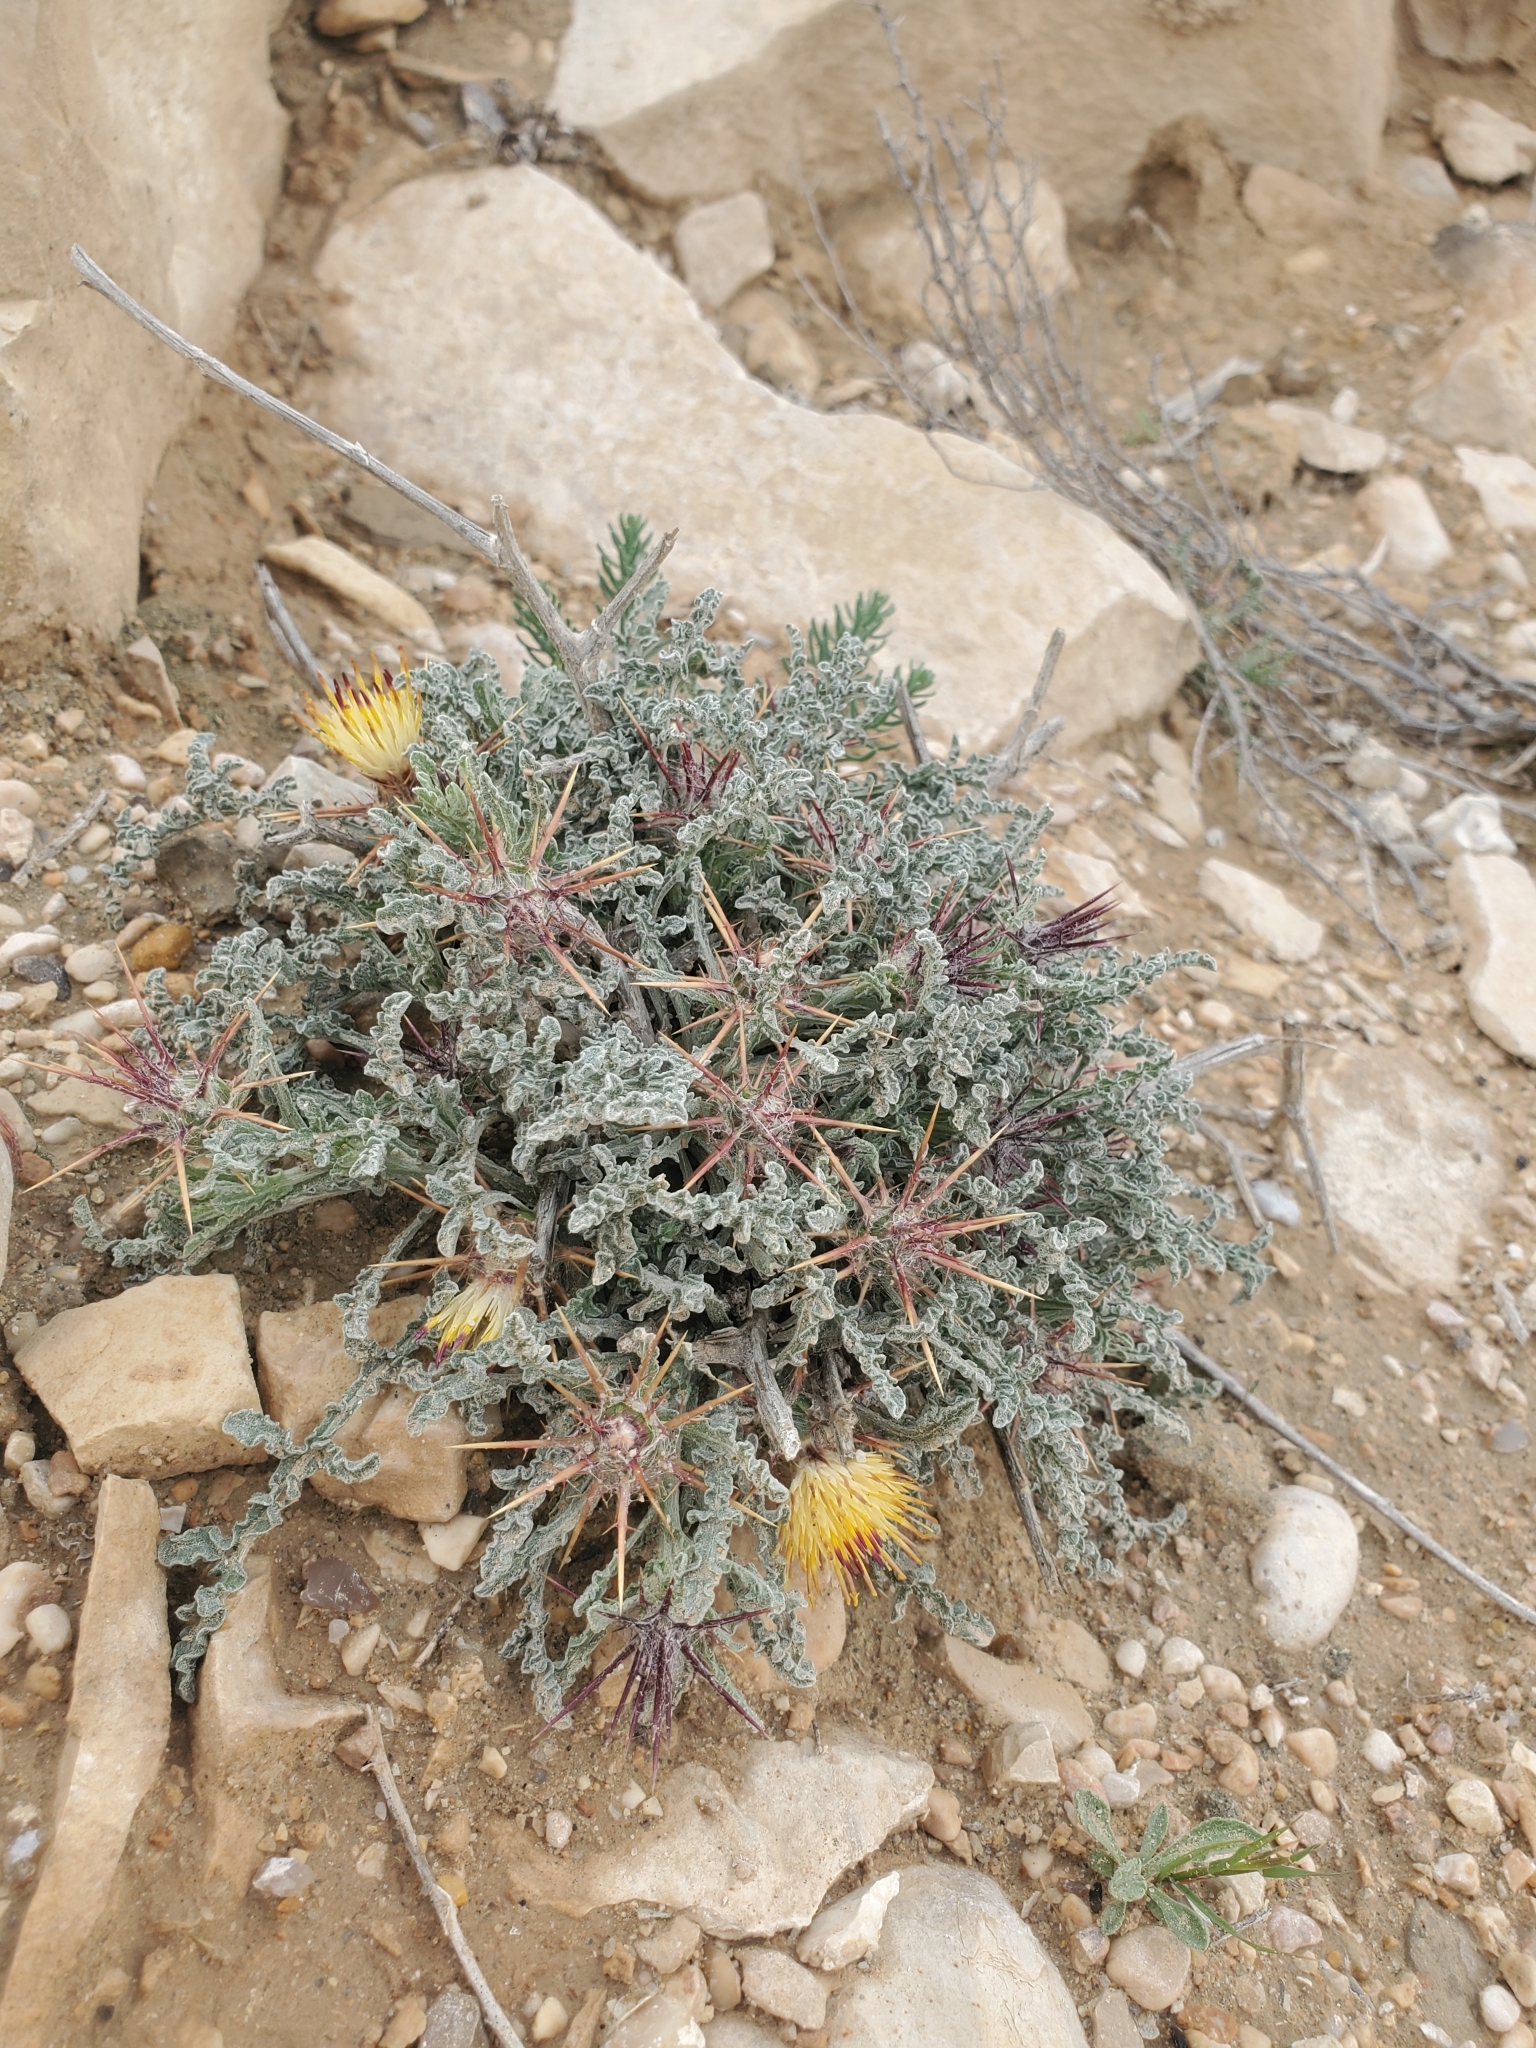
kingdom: Plantae
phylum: Tracheophyta
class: Magnoliopsida
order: Asterales
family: Asteraceae
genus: Centaurea
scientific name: Centaurea aegyptiaca
